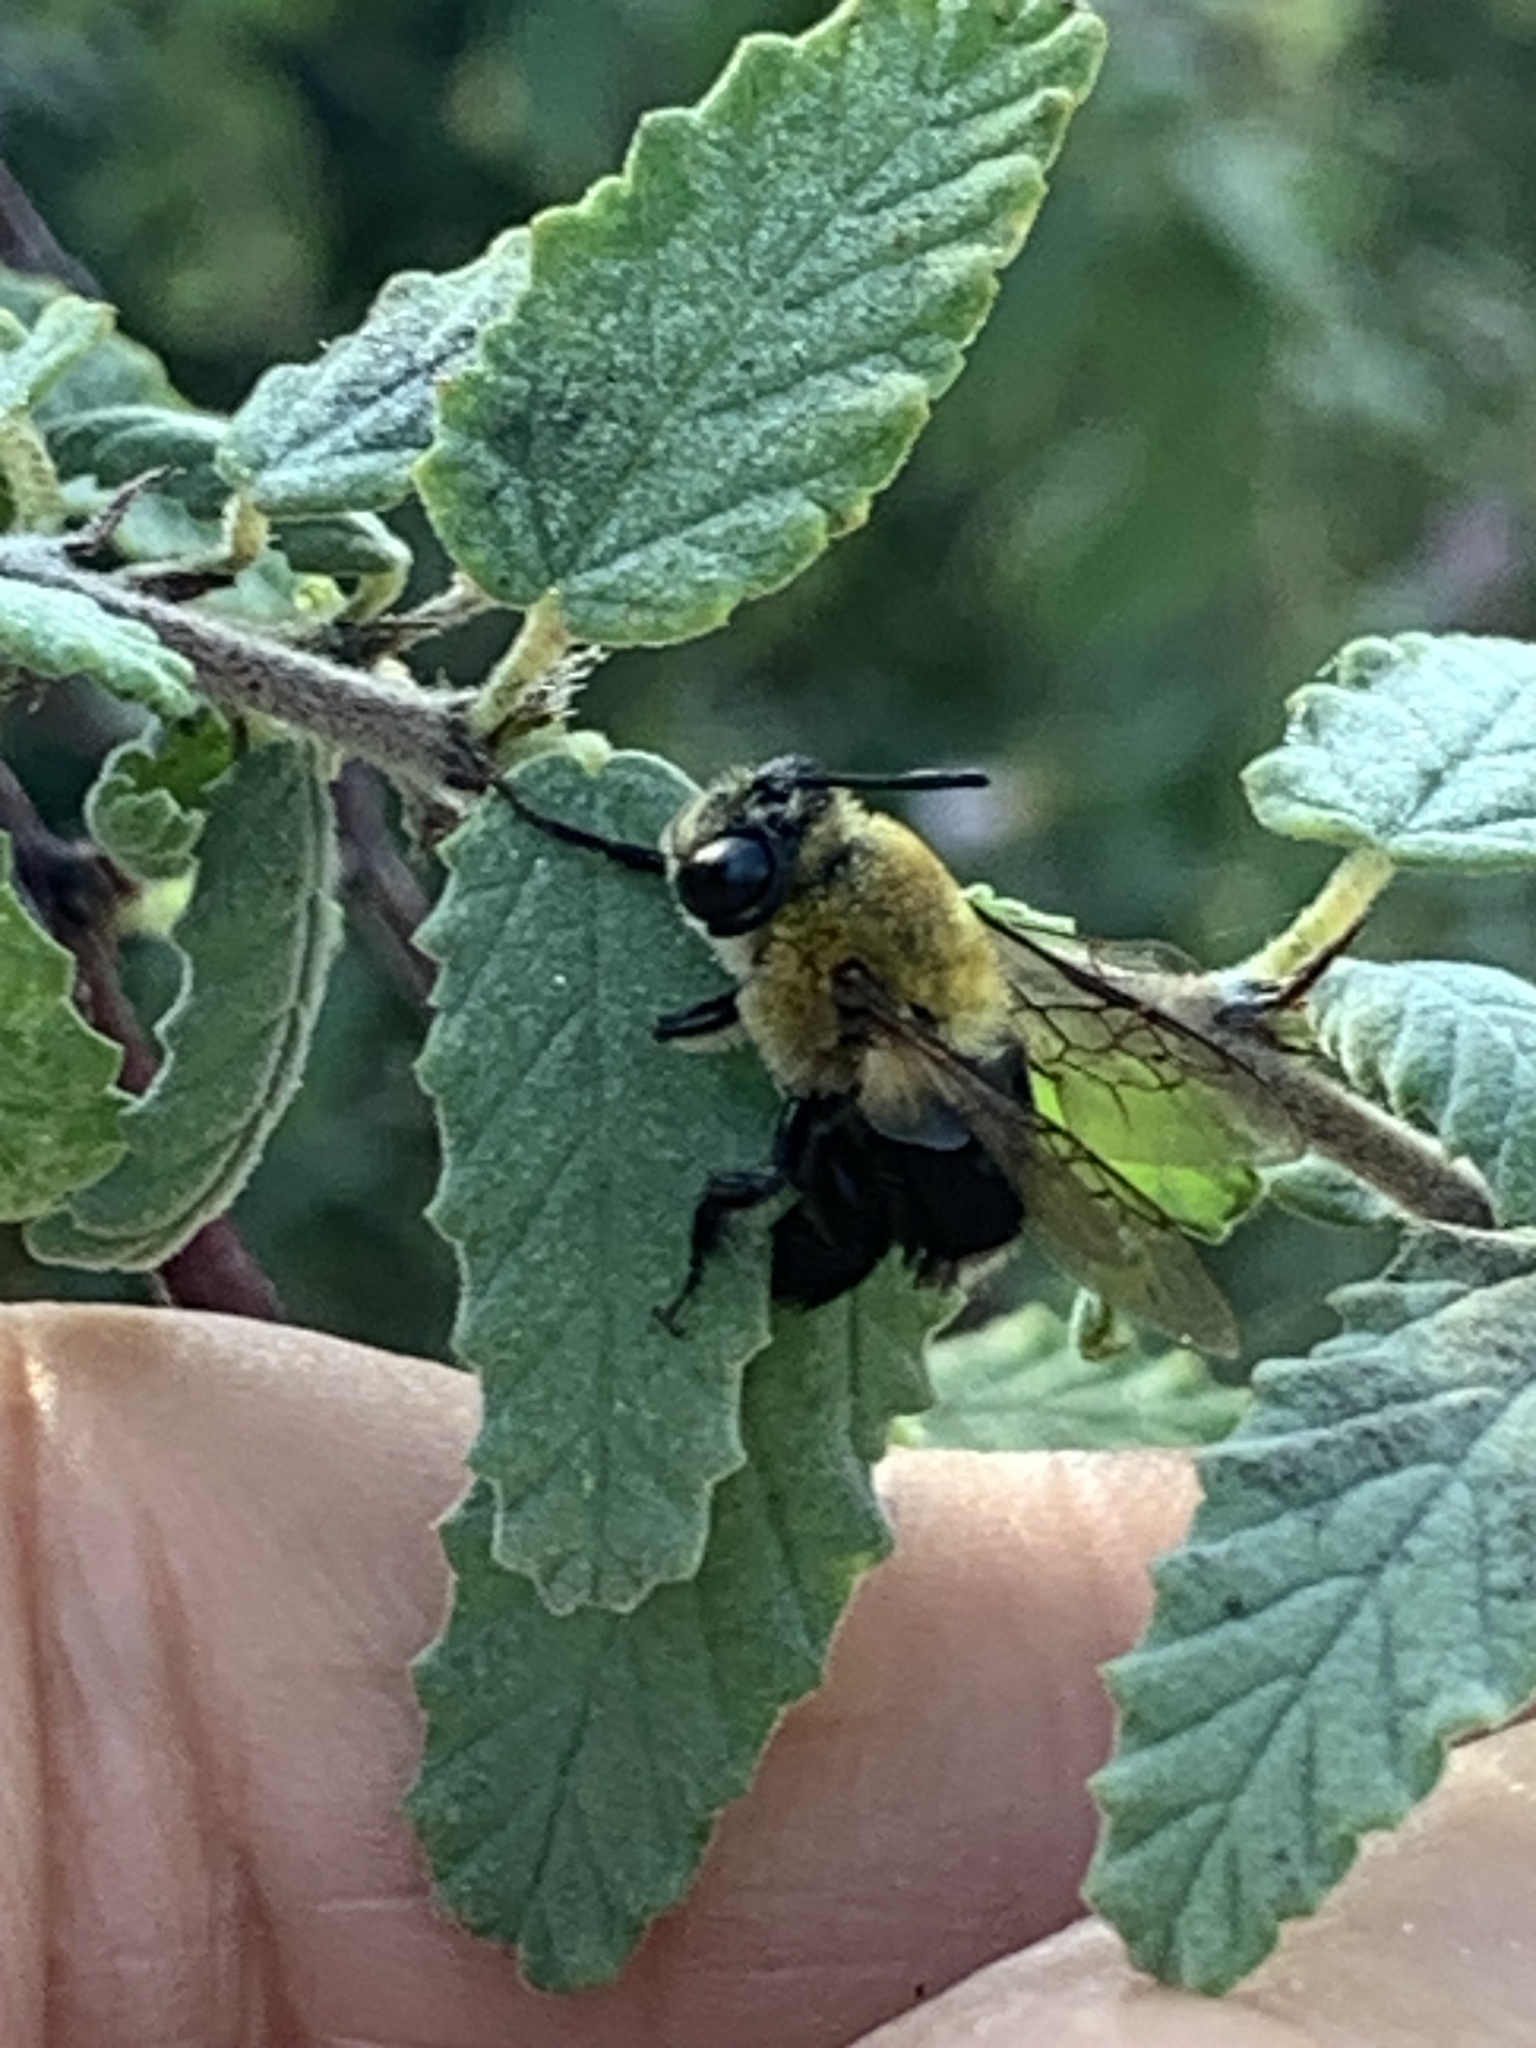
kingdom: Animalia
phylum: Arthropoda
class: Insecta
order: Hymenoptera
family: Apidae
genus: Centris
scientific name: Centris nitida
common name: Oil-collecting bee
